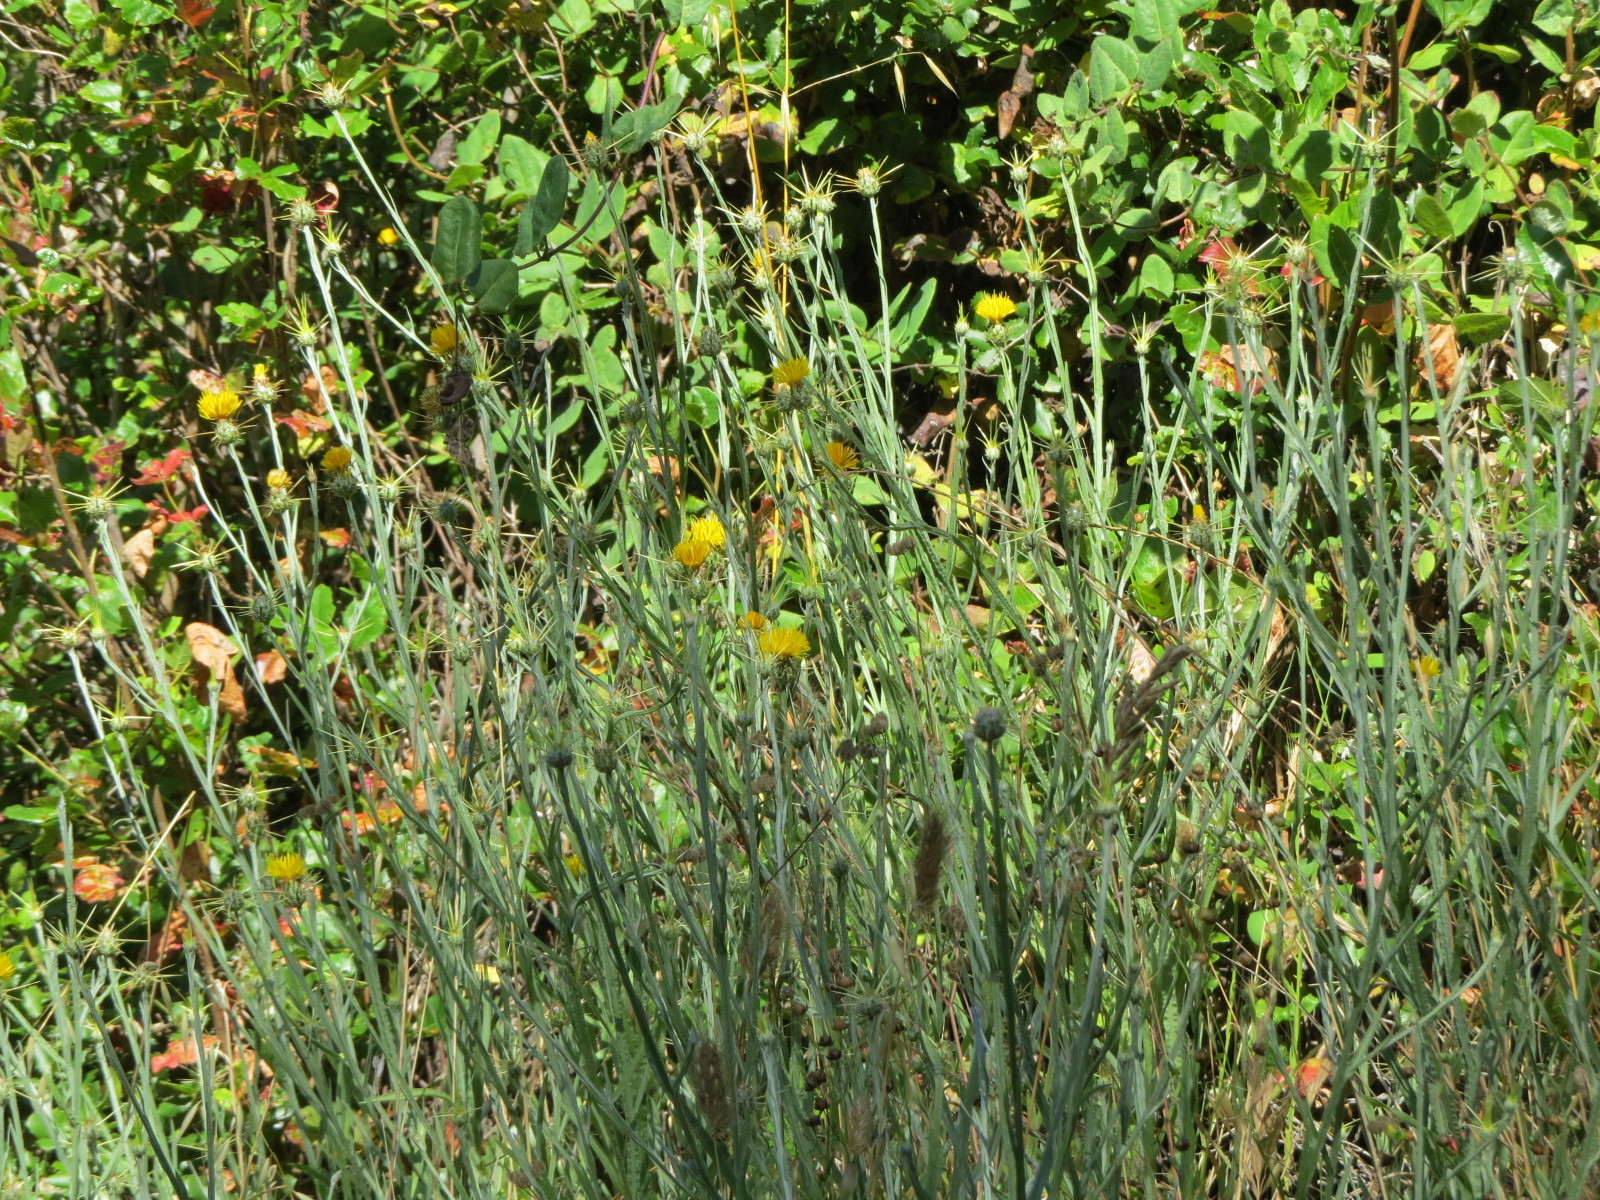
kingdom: Plantae
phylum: Tracheophyta
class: Magnoliopsida
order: Asterales
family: Asteraceae
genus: Centaurea
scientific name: Centaurea solstitialis
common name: Yellow star-thistle
